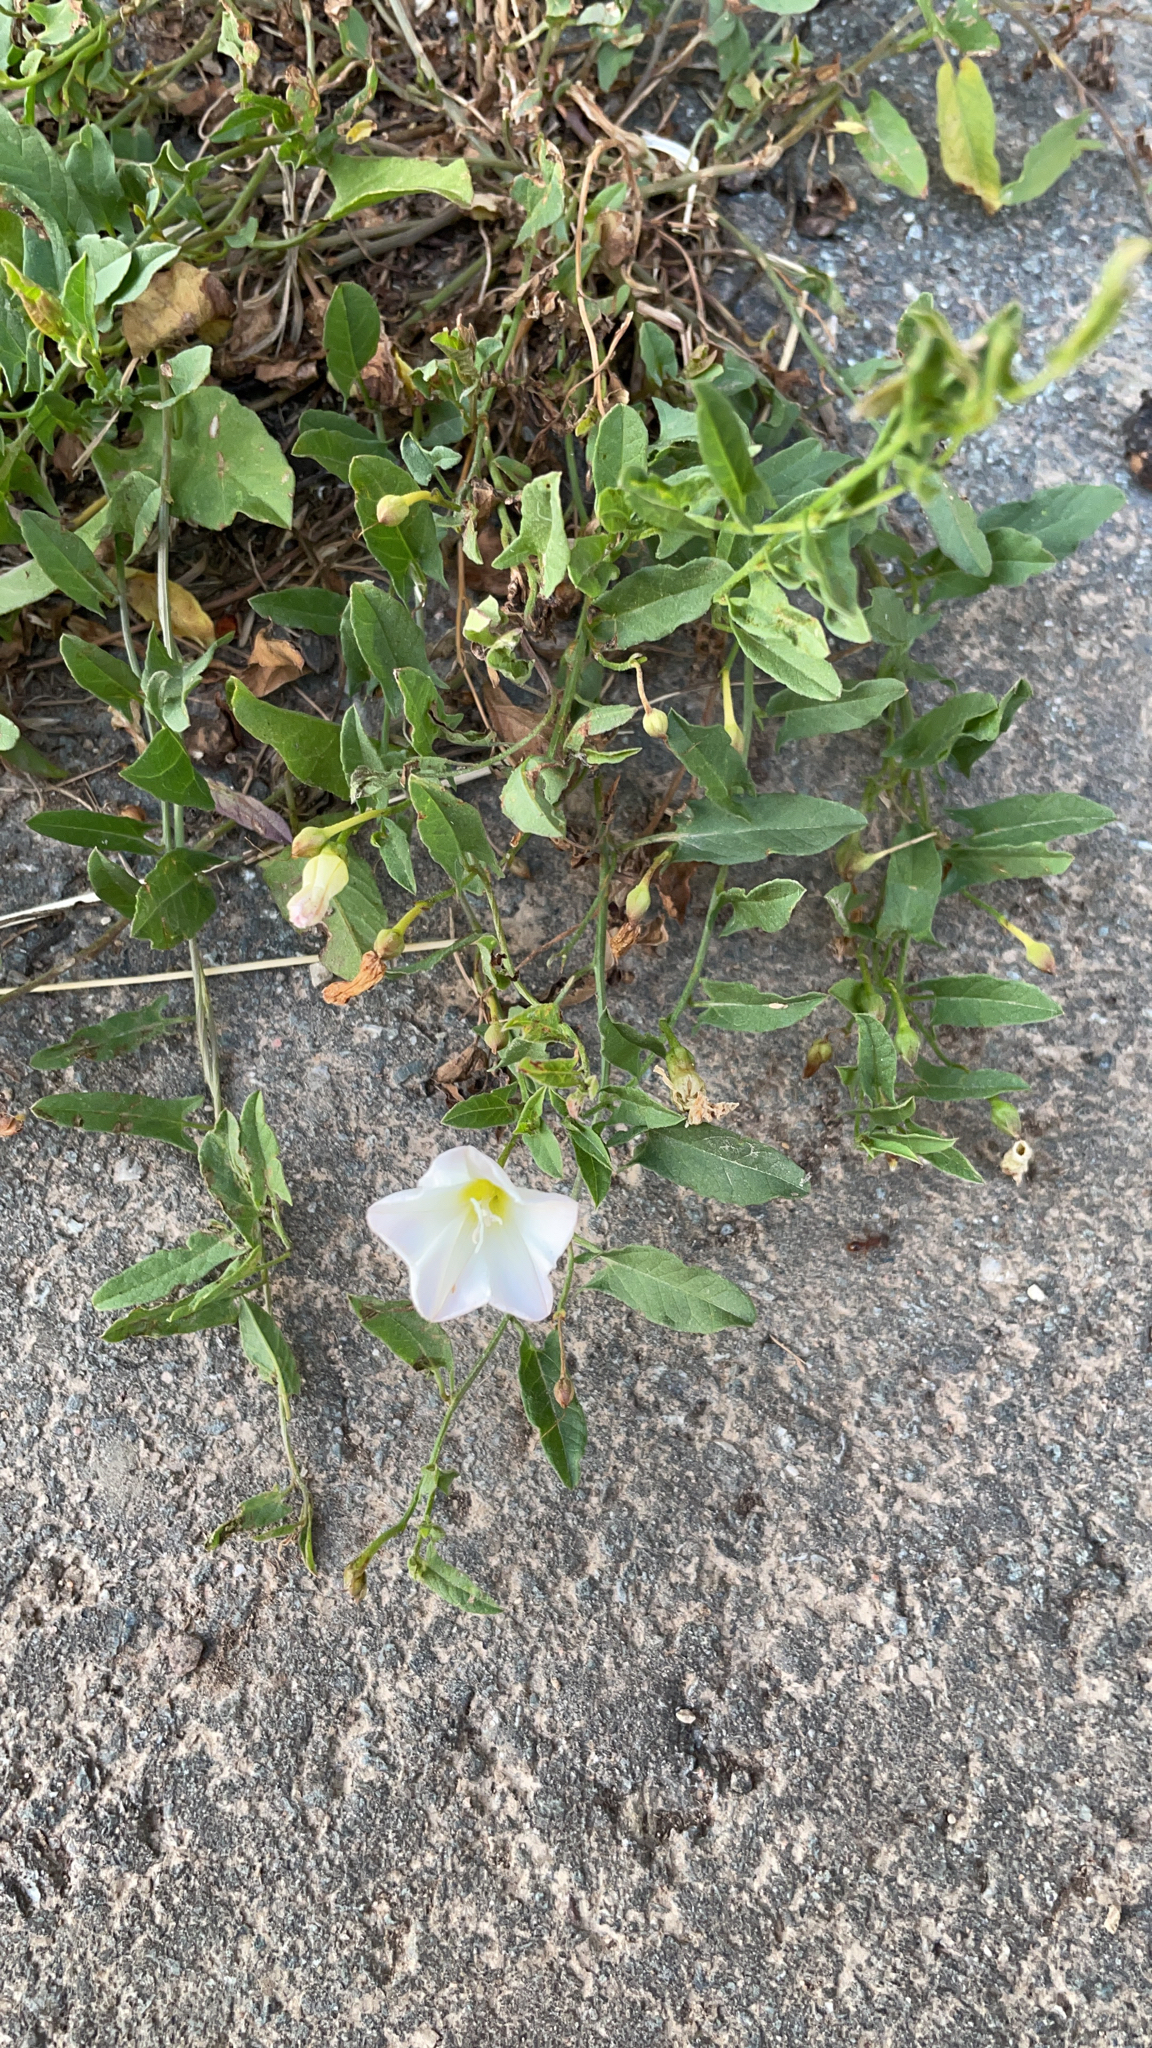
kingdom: Plantae
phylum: Tracheophyta
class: Magnoliopsida
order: Solanales
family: Convolvulaceae
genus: Convolvulus
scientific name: Convolvulus arvensis
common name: Field bindweed
